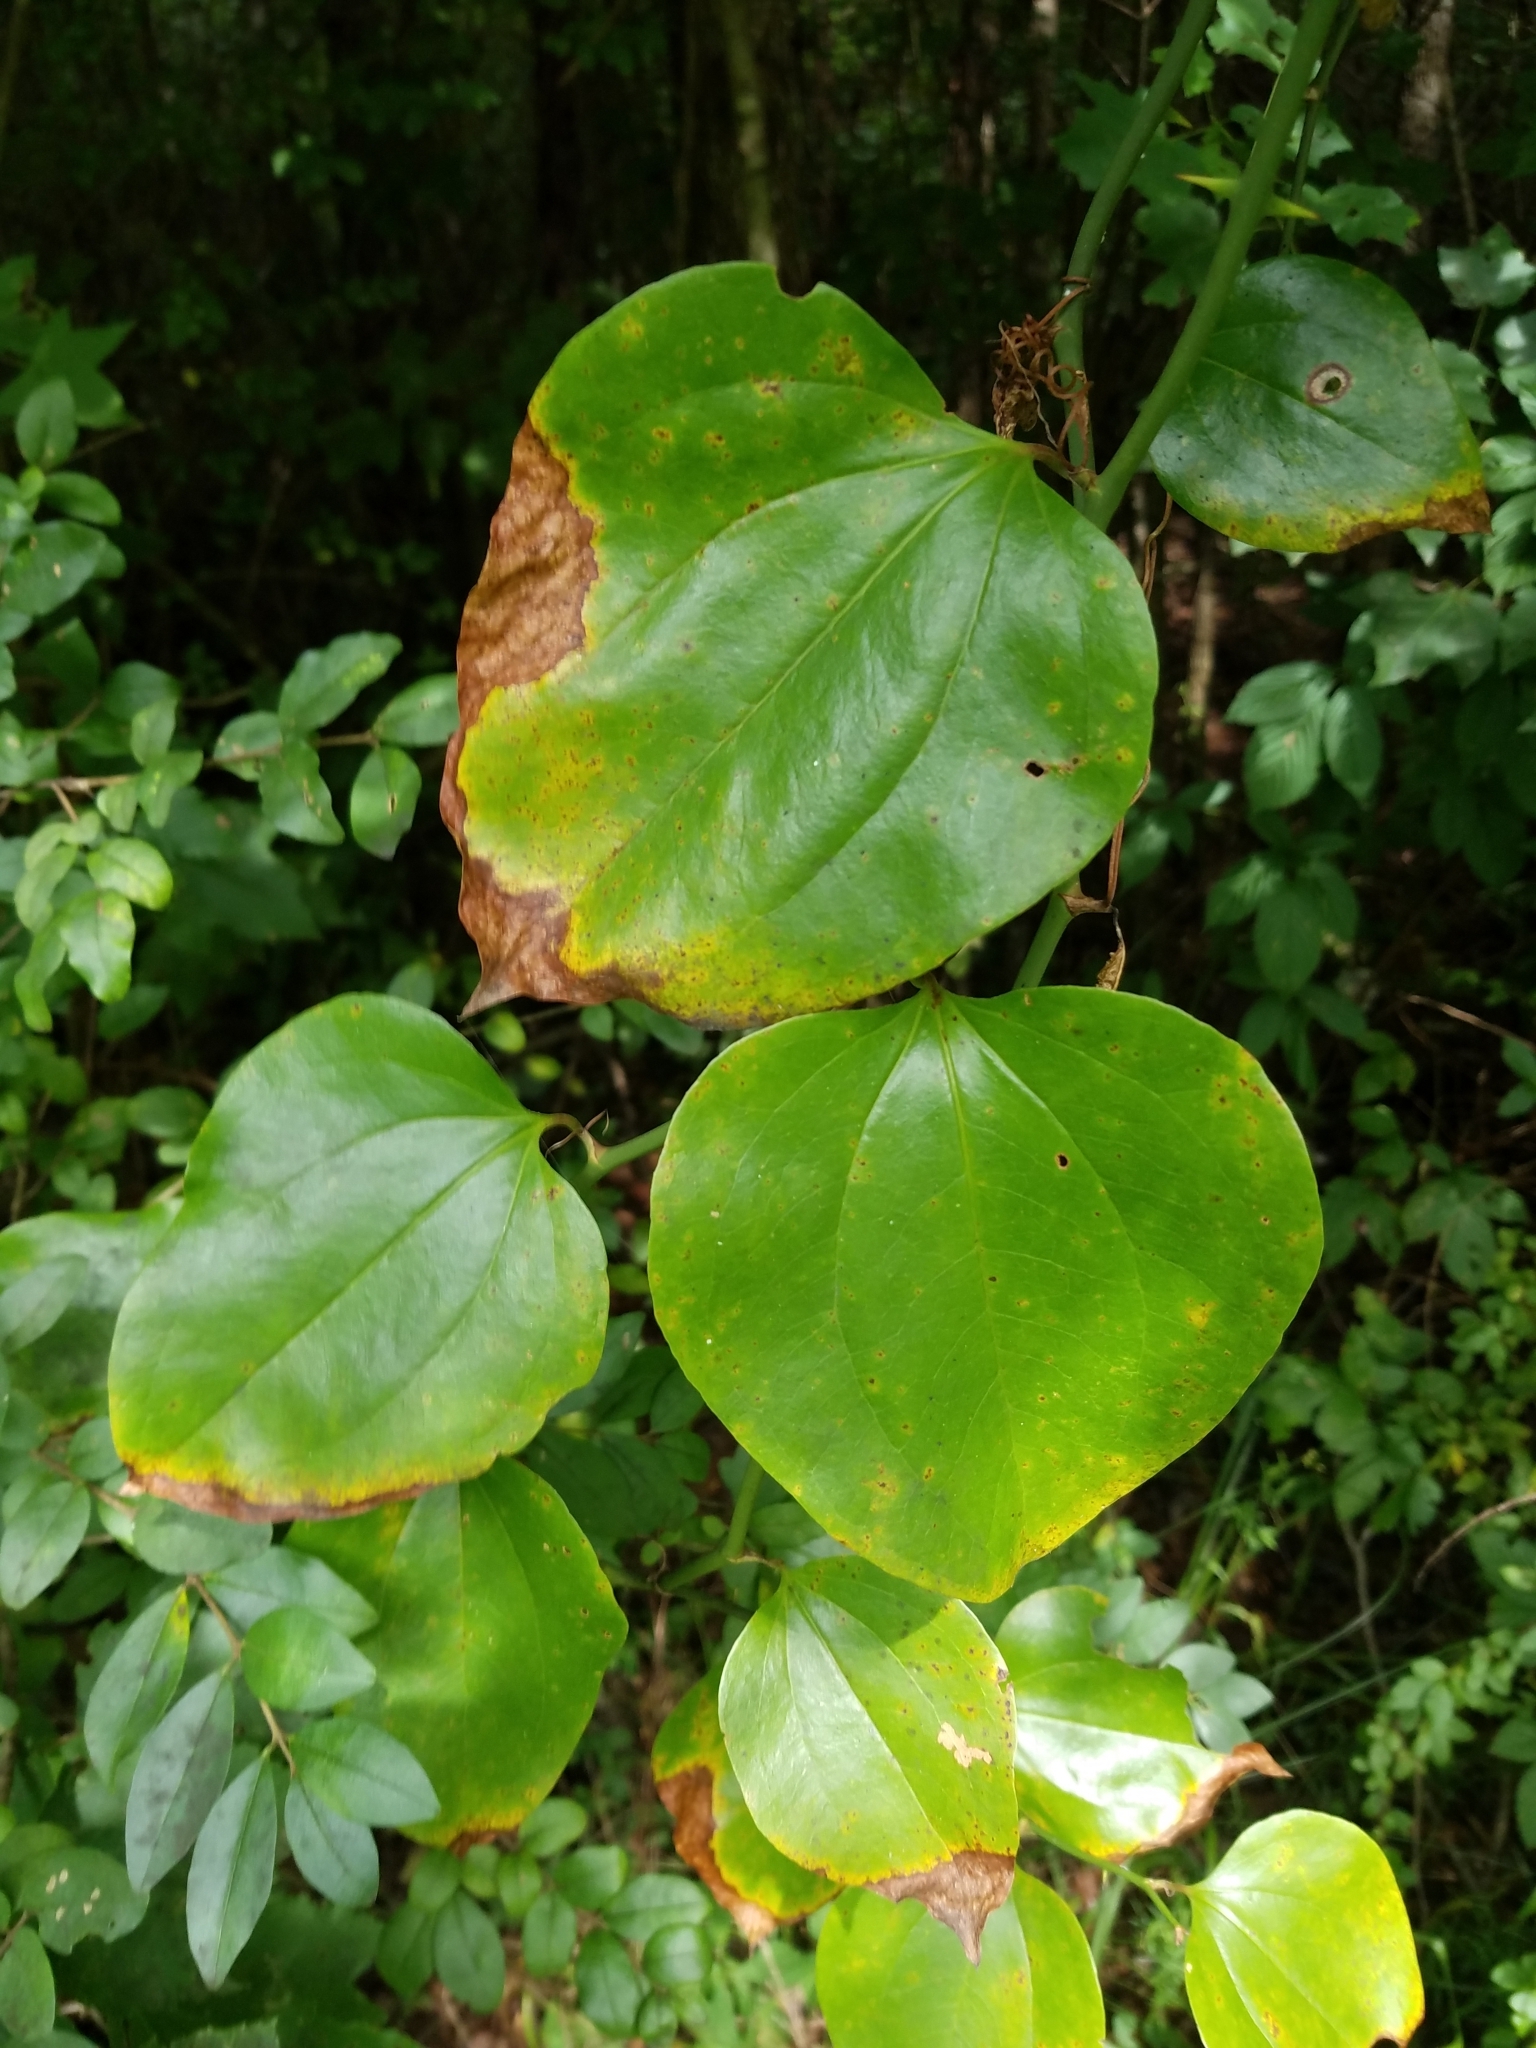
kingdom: Plantae
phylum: Tracheophyta
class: Liliopsida
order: Liliales
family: Smilacaceae
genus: Smilax
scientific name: Smilax rotundifolia
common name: Bullbriar
